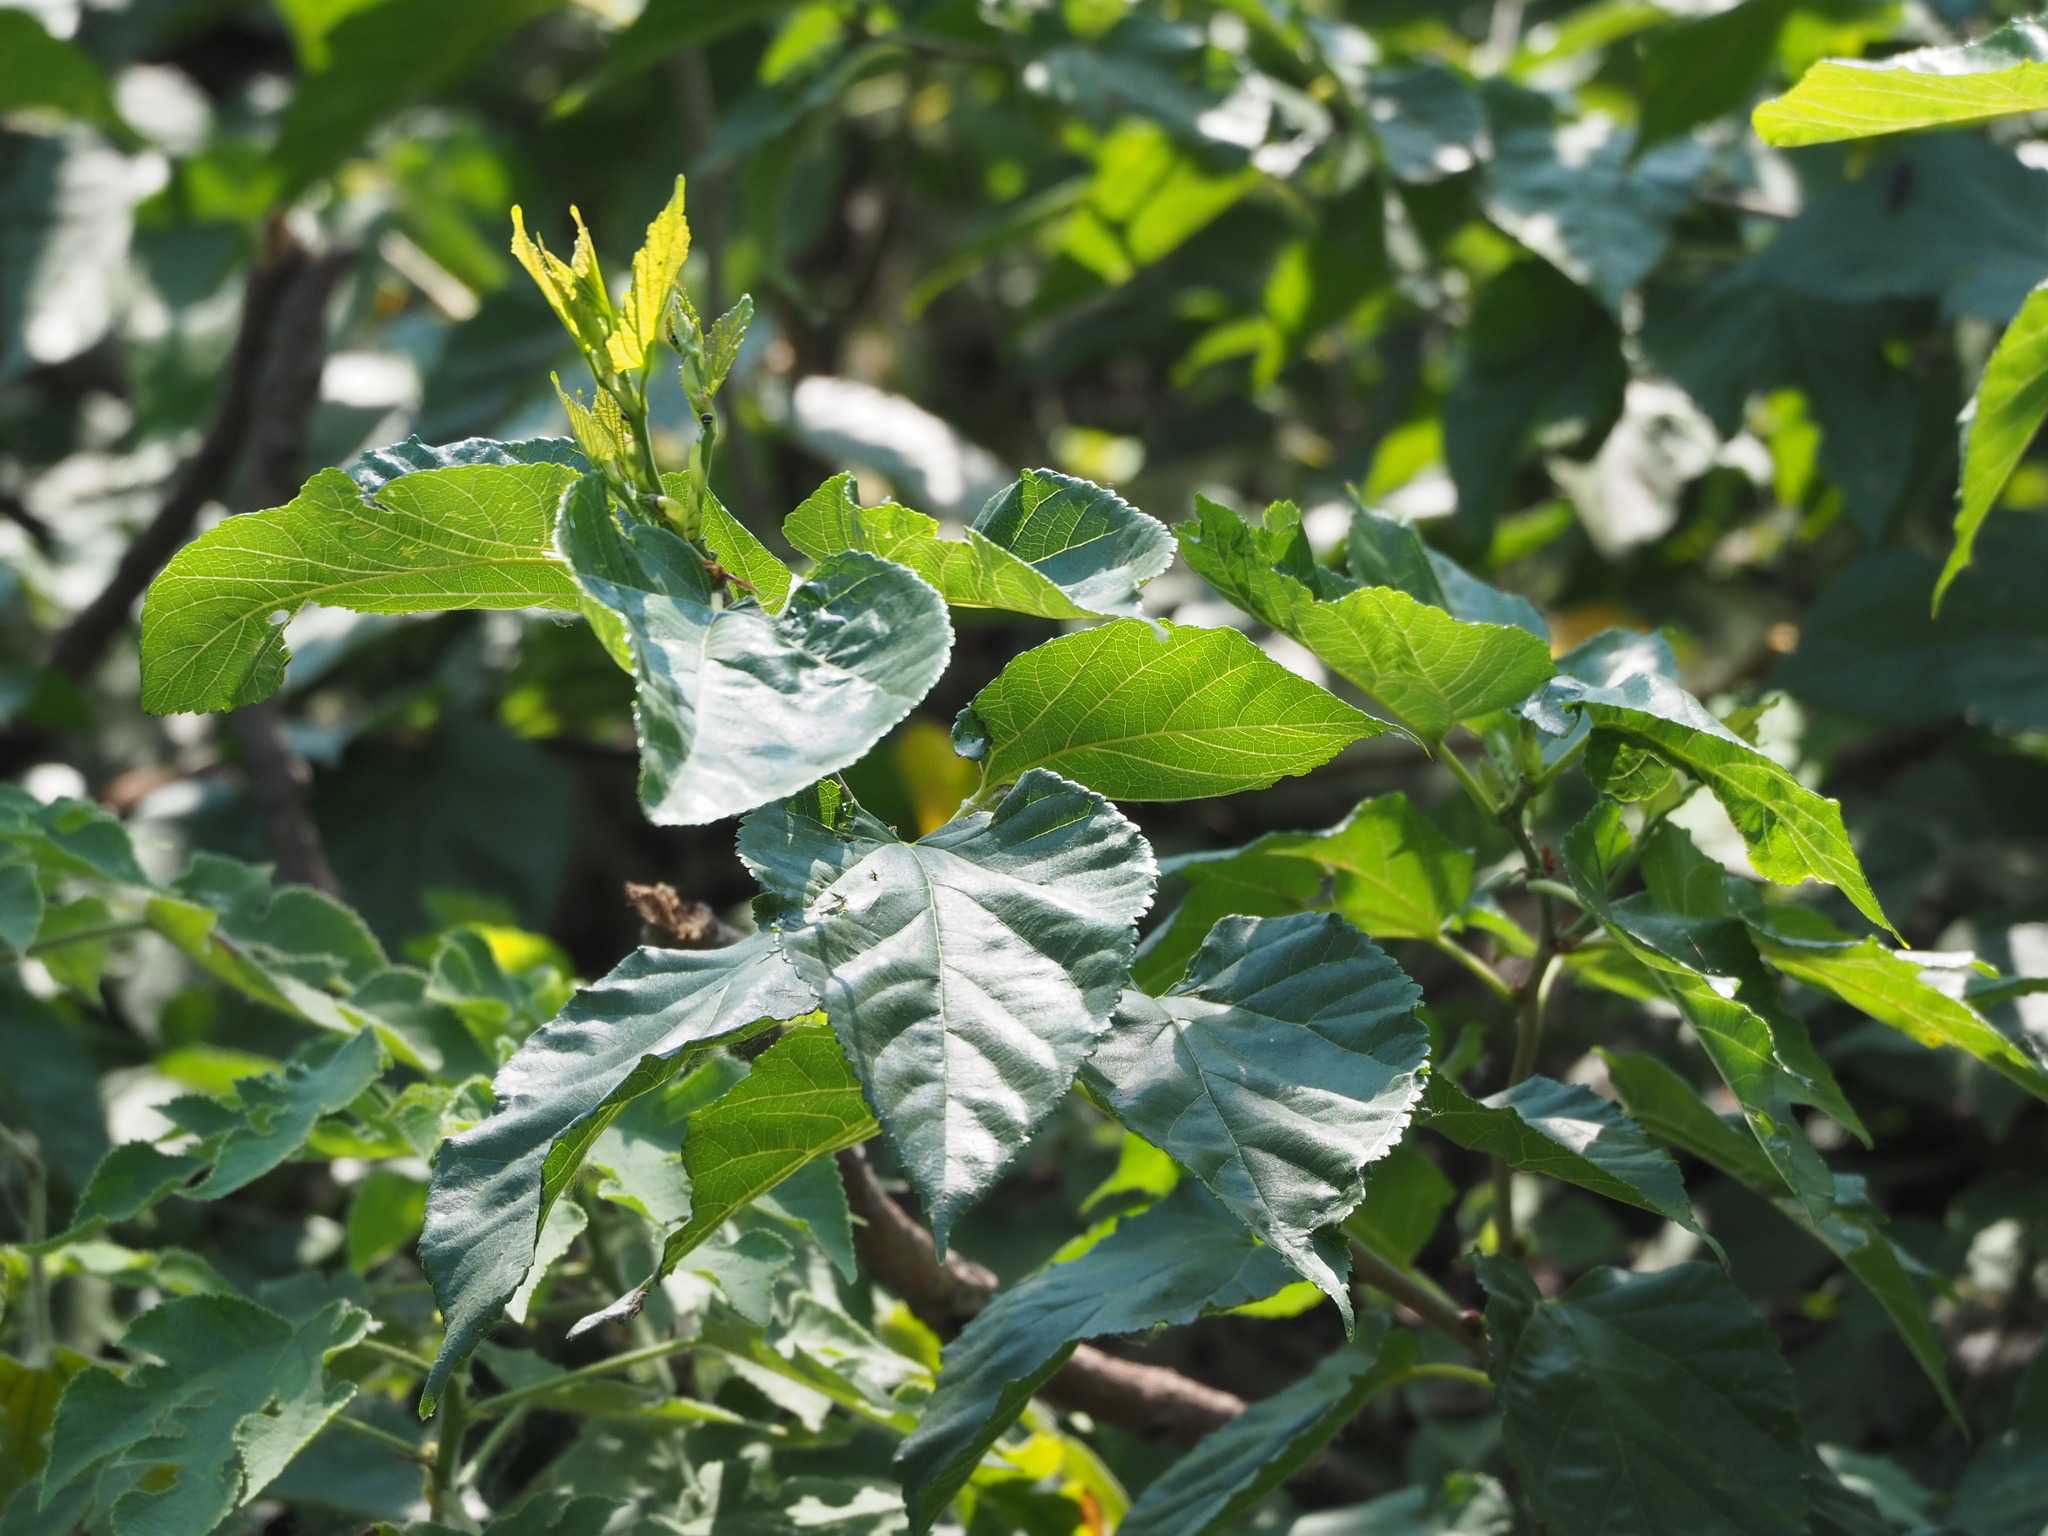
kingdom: Plantae
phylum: Tracheophyta
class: Magnoliopsida
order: Rosales
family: Moraceae
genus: Morus
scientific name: Morus indica
